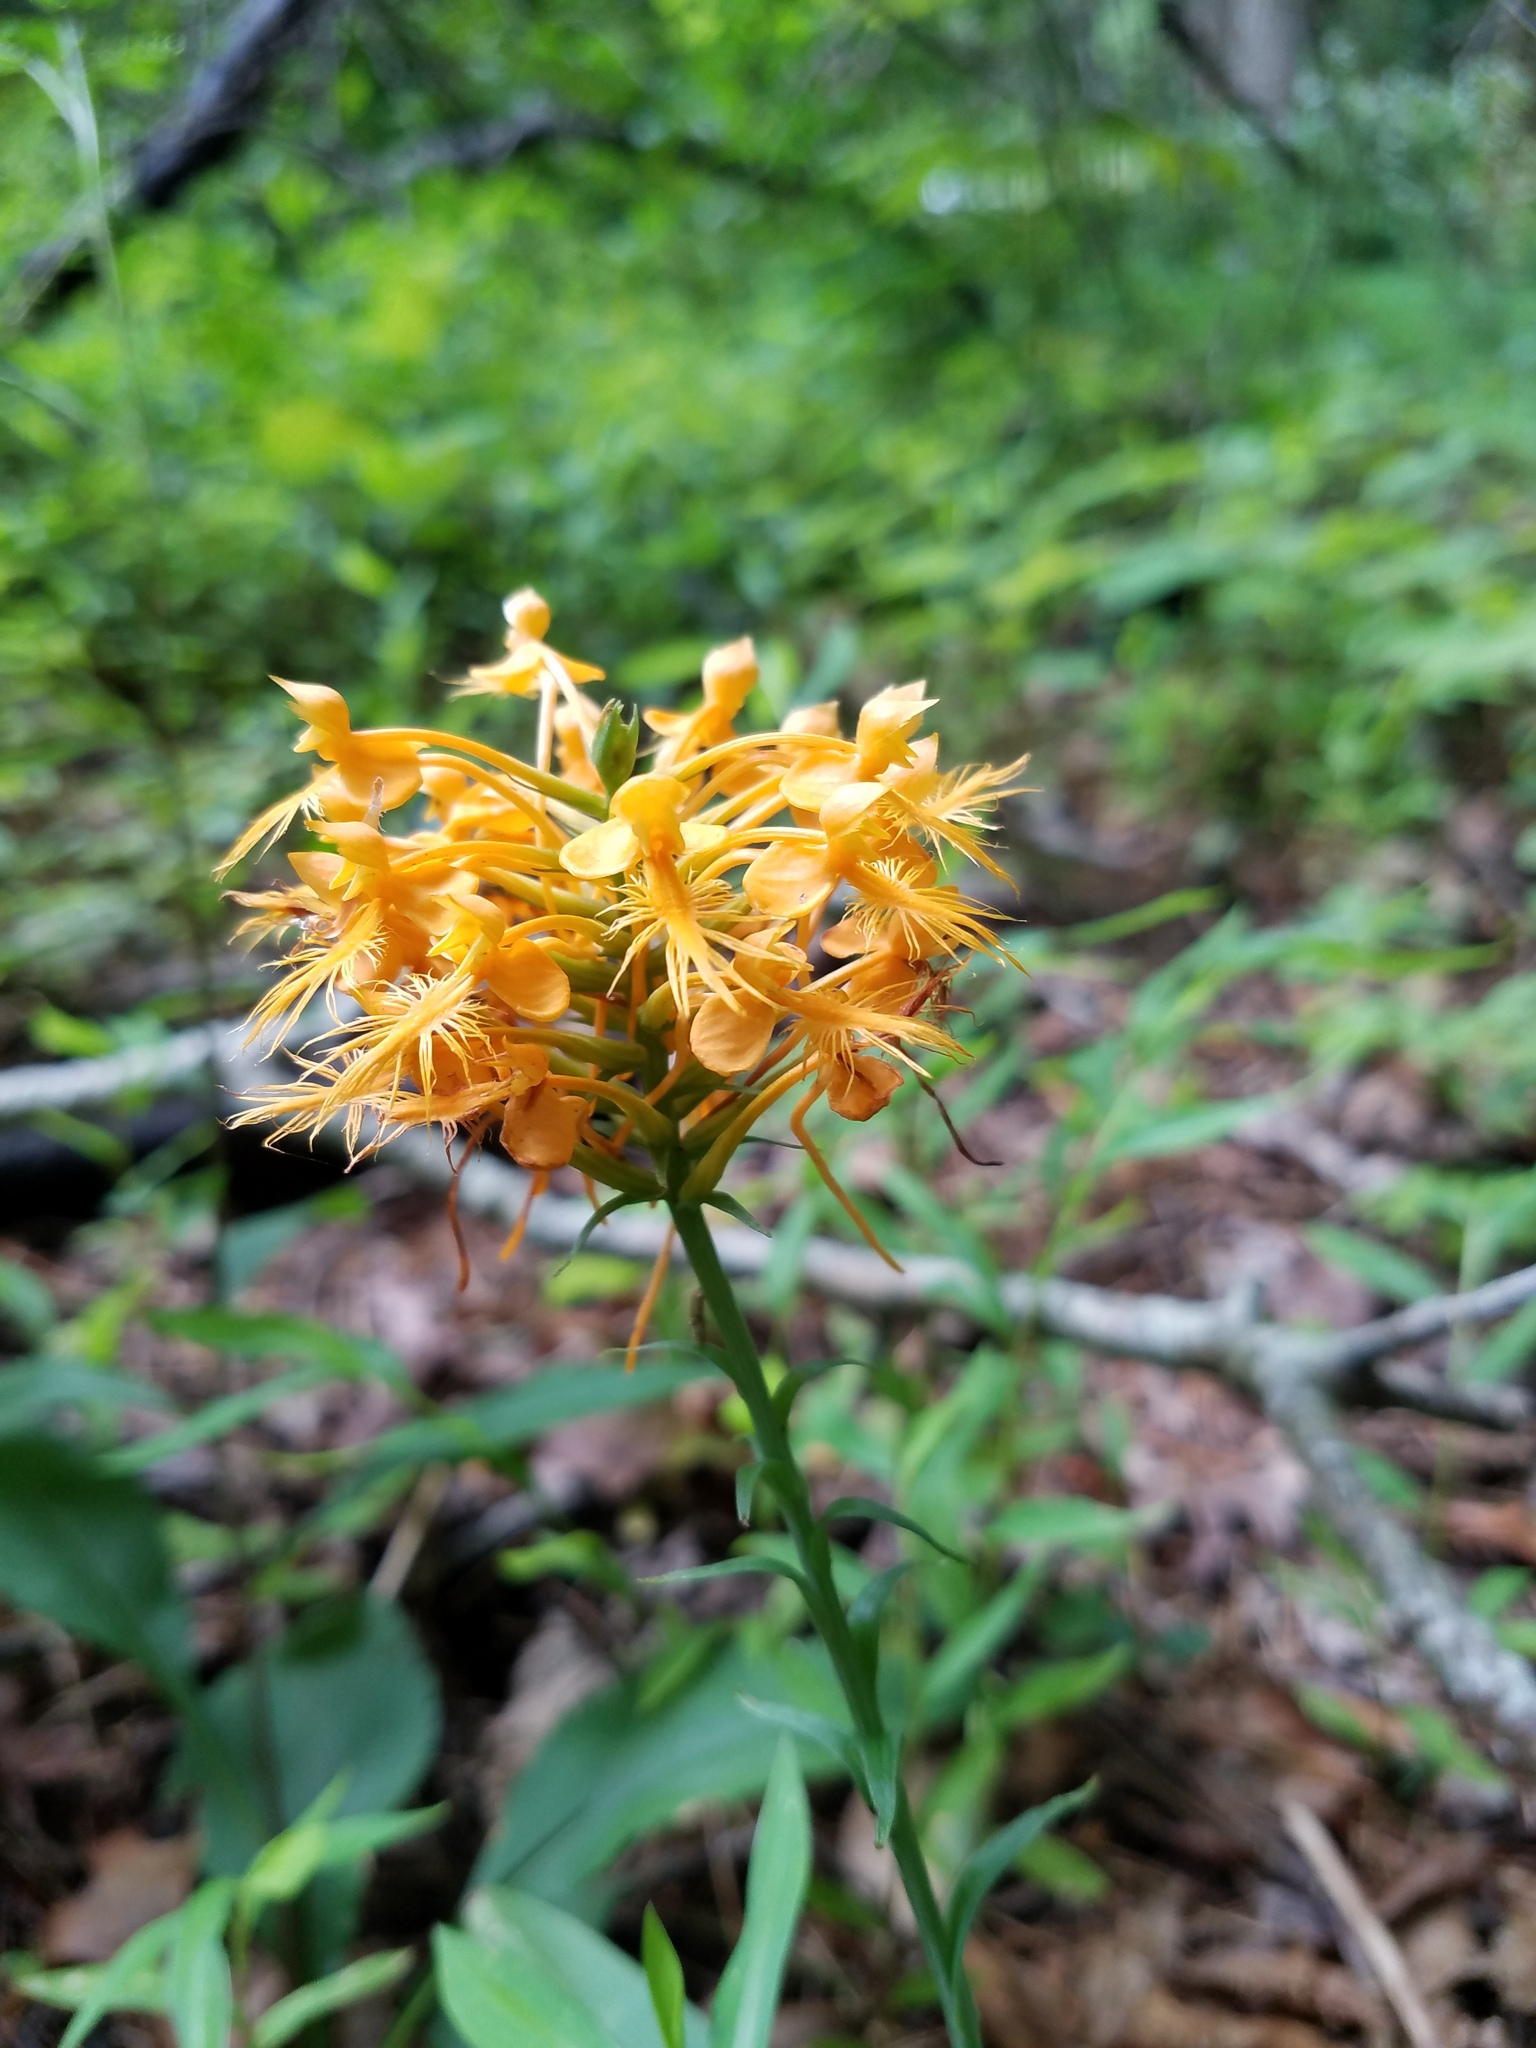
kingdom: Plantae
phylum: Tracheophyta
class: Liliopsida
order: Asparagales
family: Orchidaceae
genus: Platanthera
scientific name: Platanthera ciliaris
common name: Yellow fringed orchid
